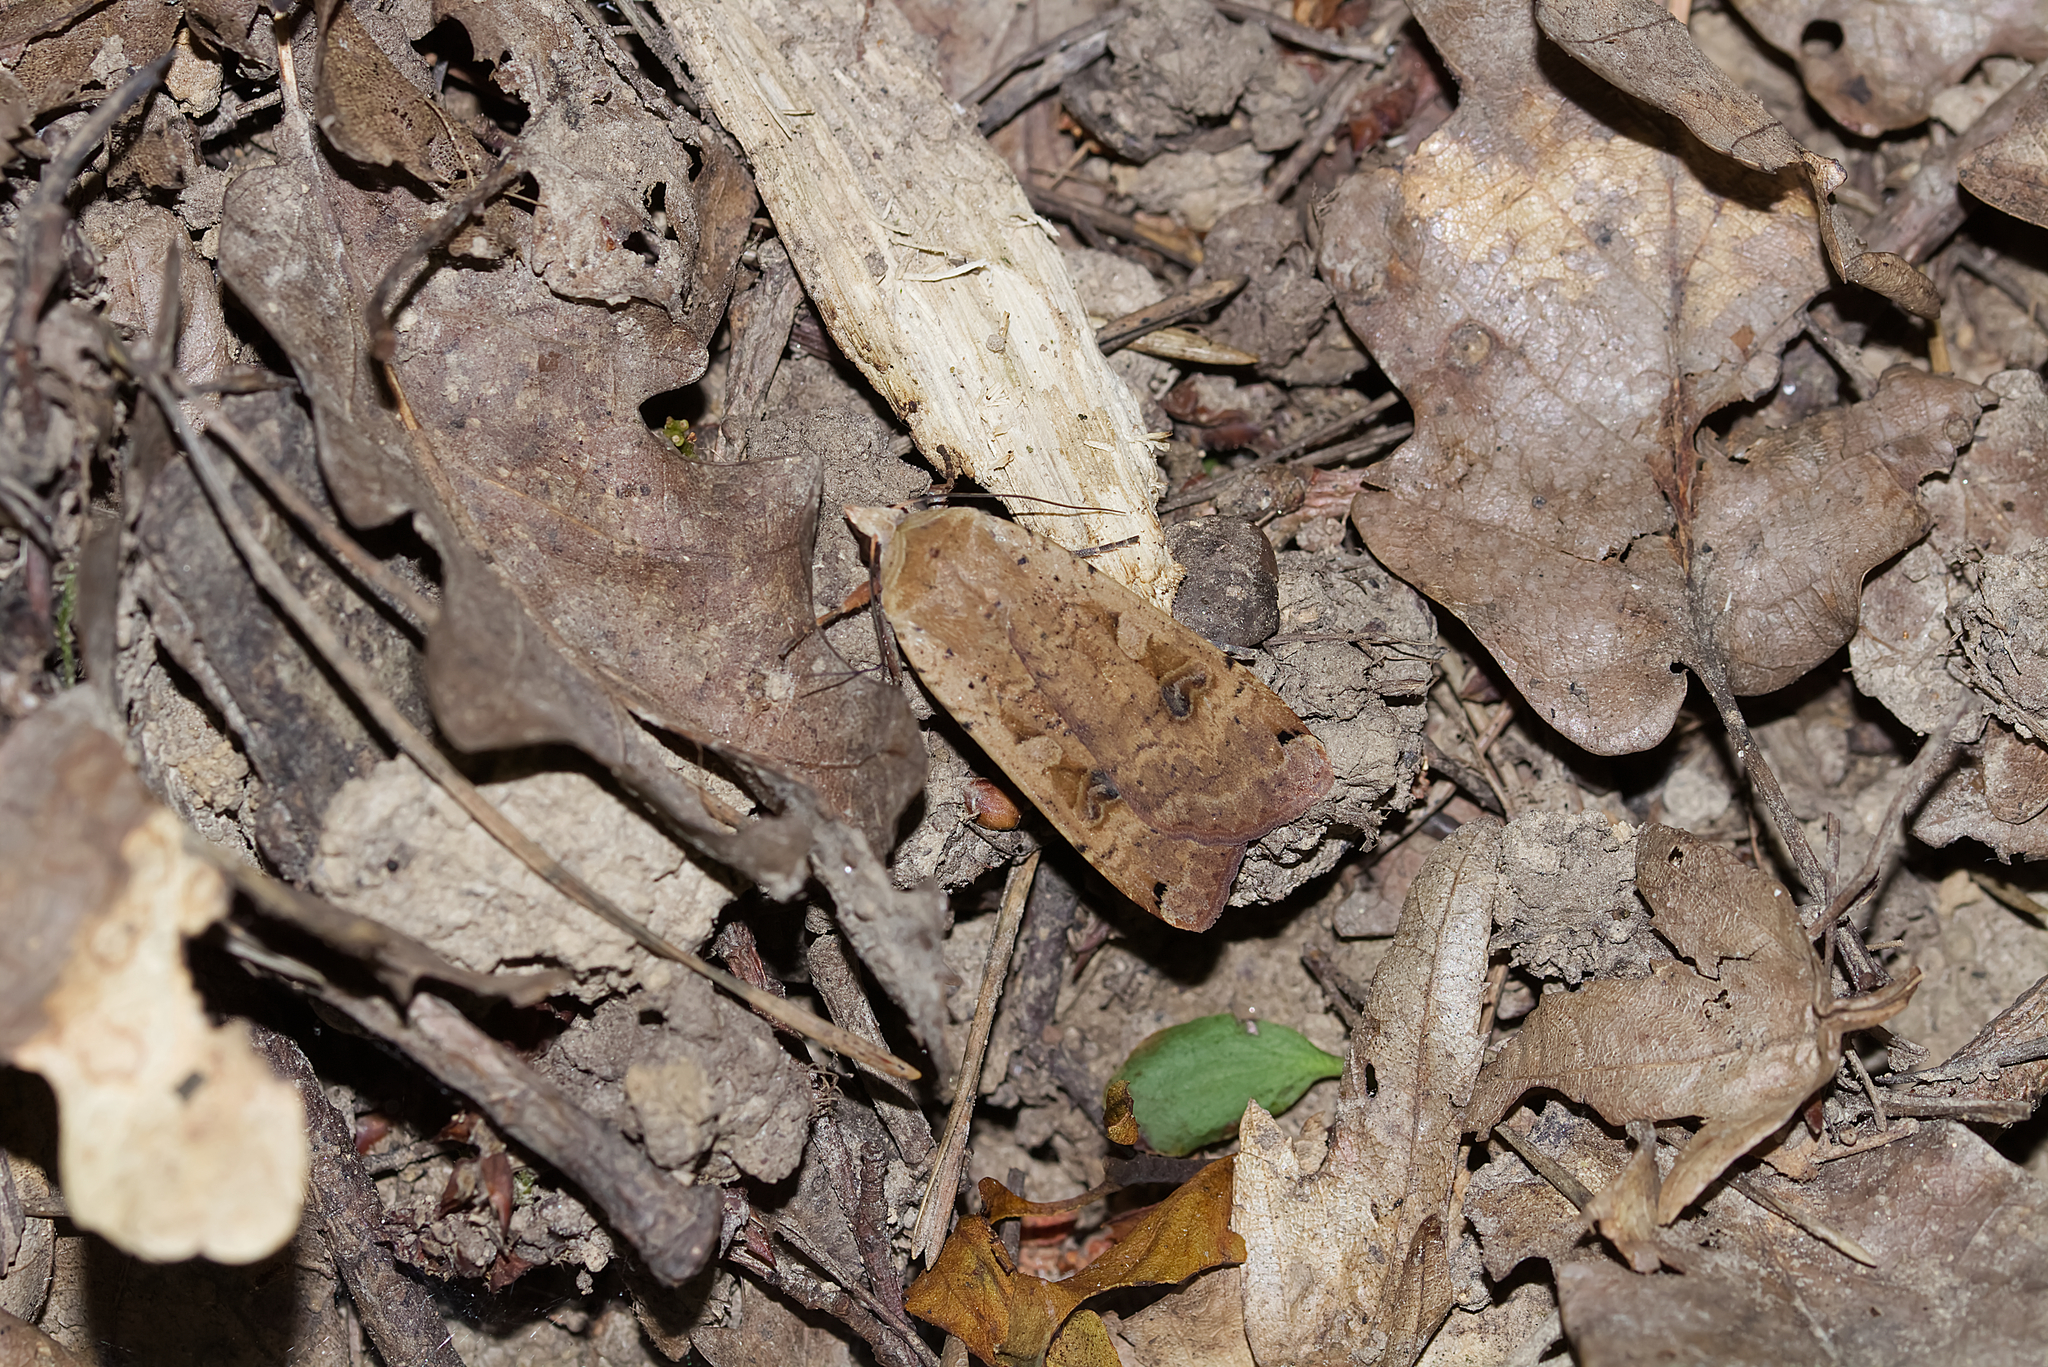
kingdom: Animalia
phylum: Arthropoda
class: Insecta
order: Lepidoptera
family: Noctuidae
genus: Noctua
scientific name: Noctua pronuba
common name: Large yellow underwing
